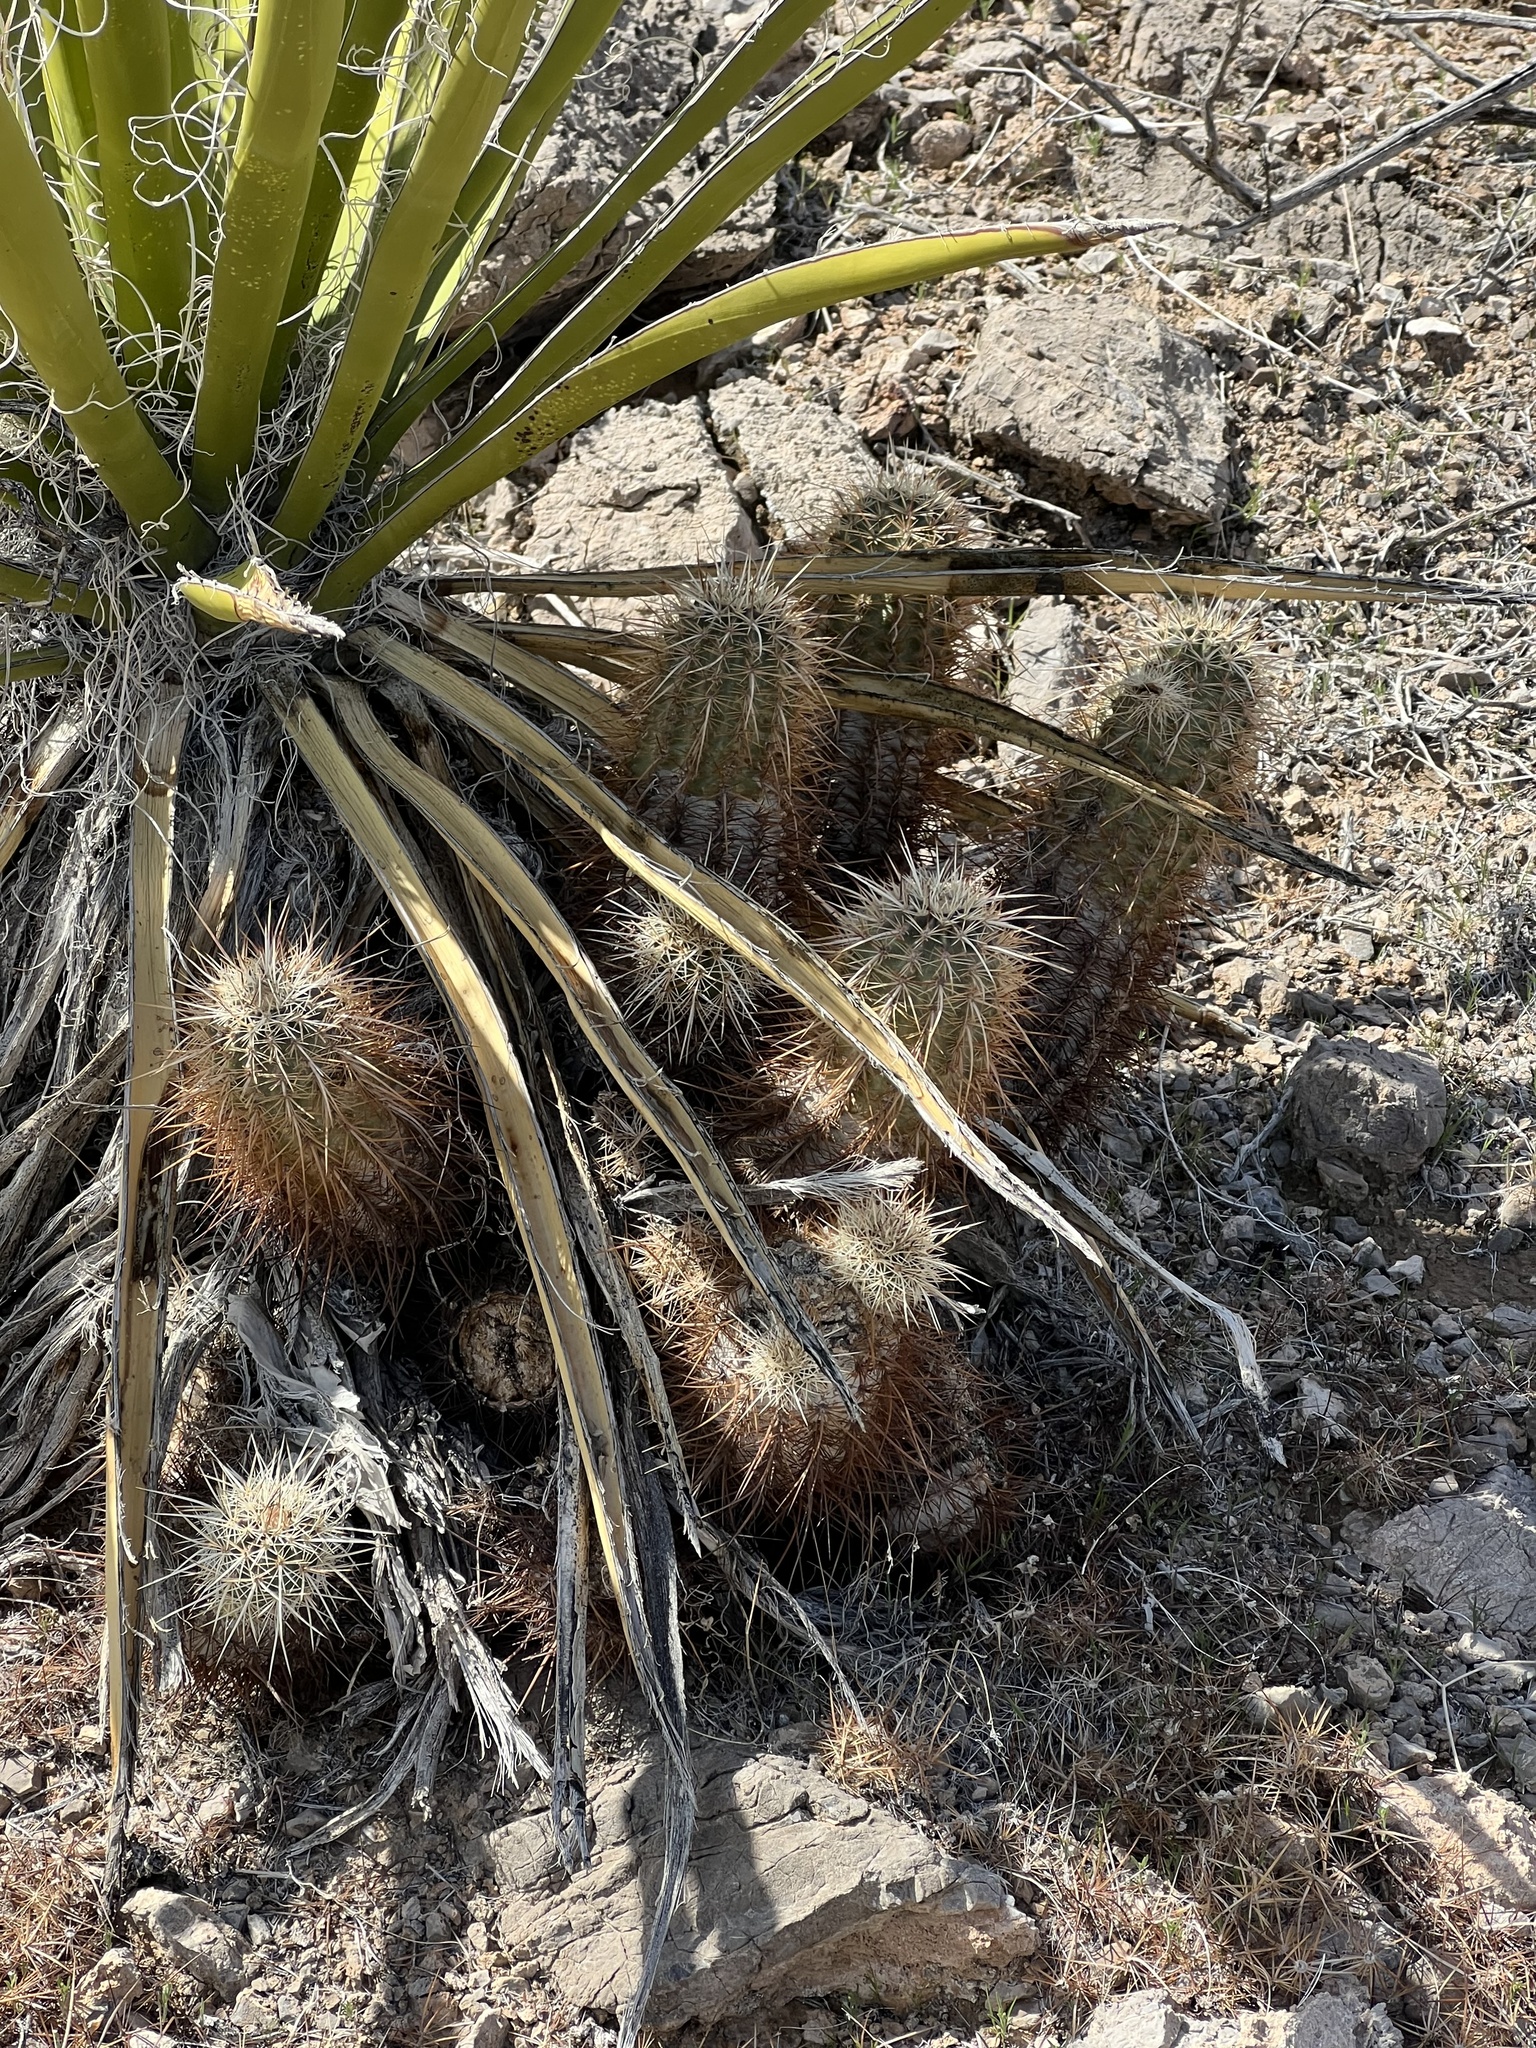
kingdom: Plantae
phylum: Tracheophyta
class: Magnoliopsida
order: Caryophyllales
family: Cactaceae
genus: Echinocereus
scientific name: Echinocereus engelmannii
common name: Engelmann's hedgehog cactus
